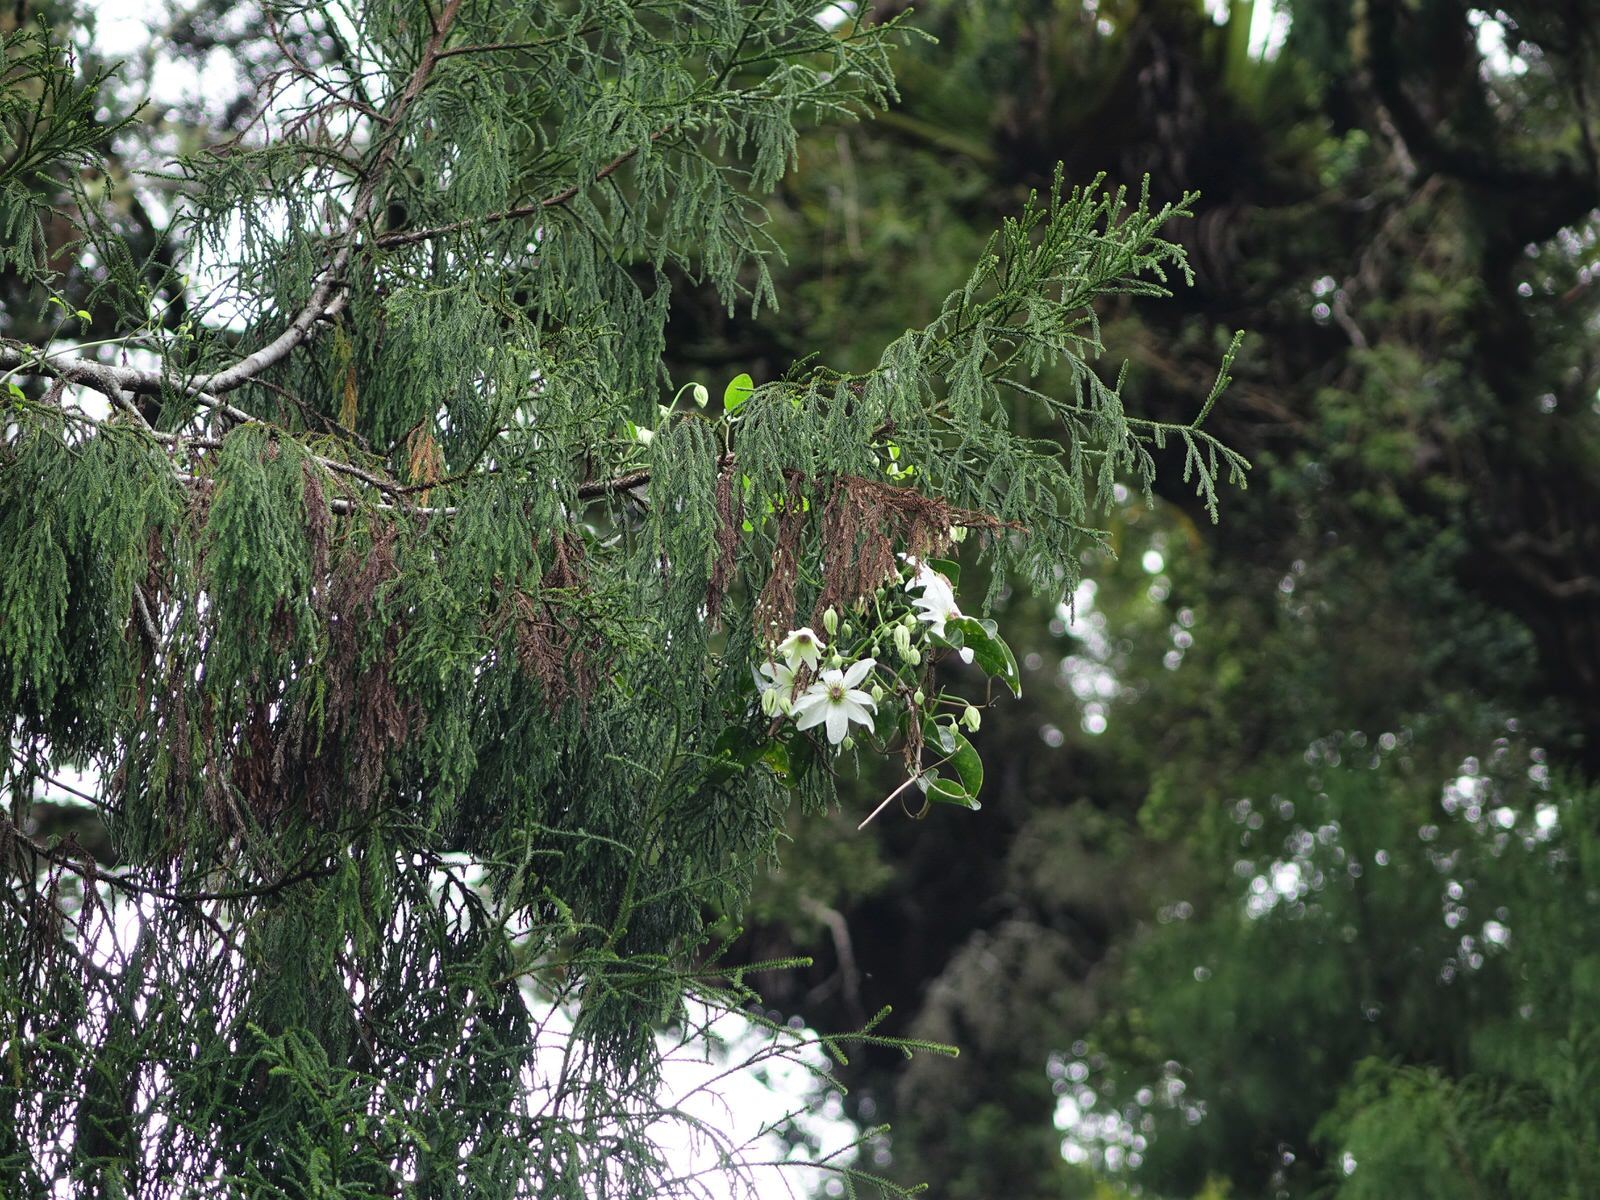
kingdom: Plantae
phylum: Tracheophyta
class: Magnoliopsida
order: Ranunculales
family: Ranunculaceae
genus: Clematis
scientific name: Clematis paniculata
